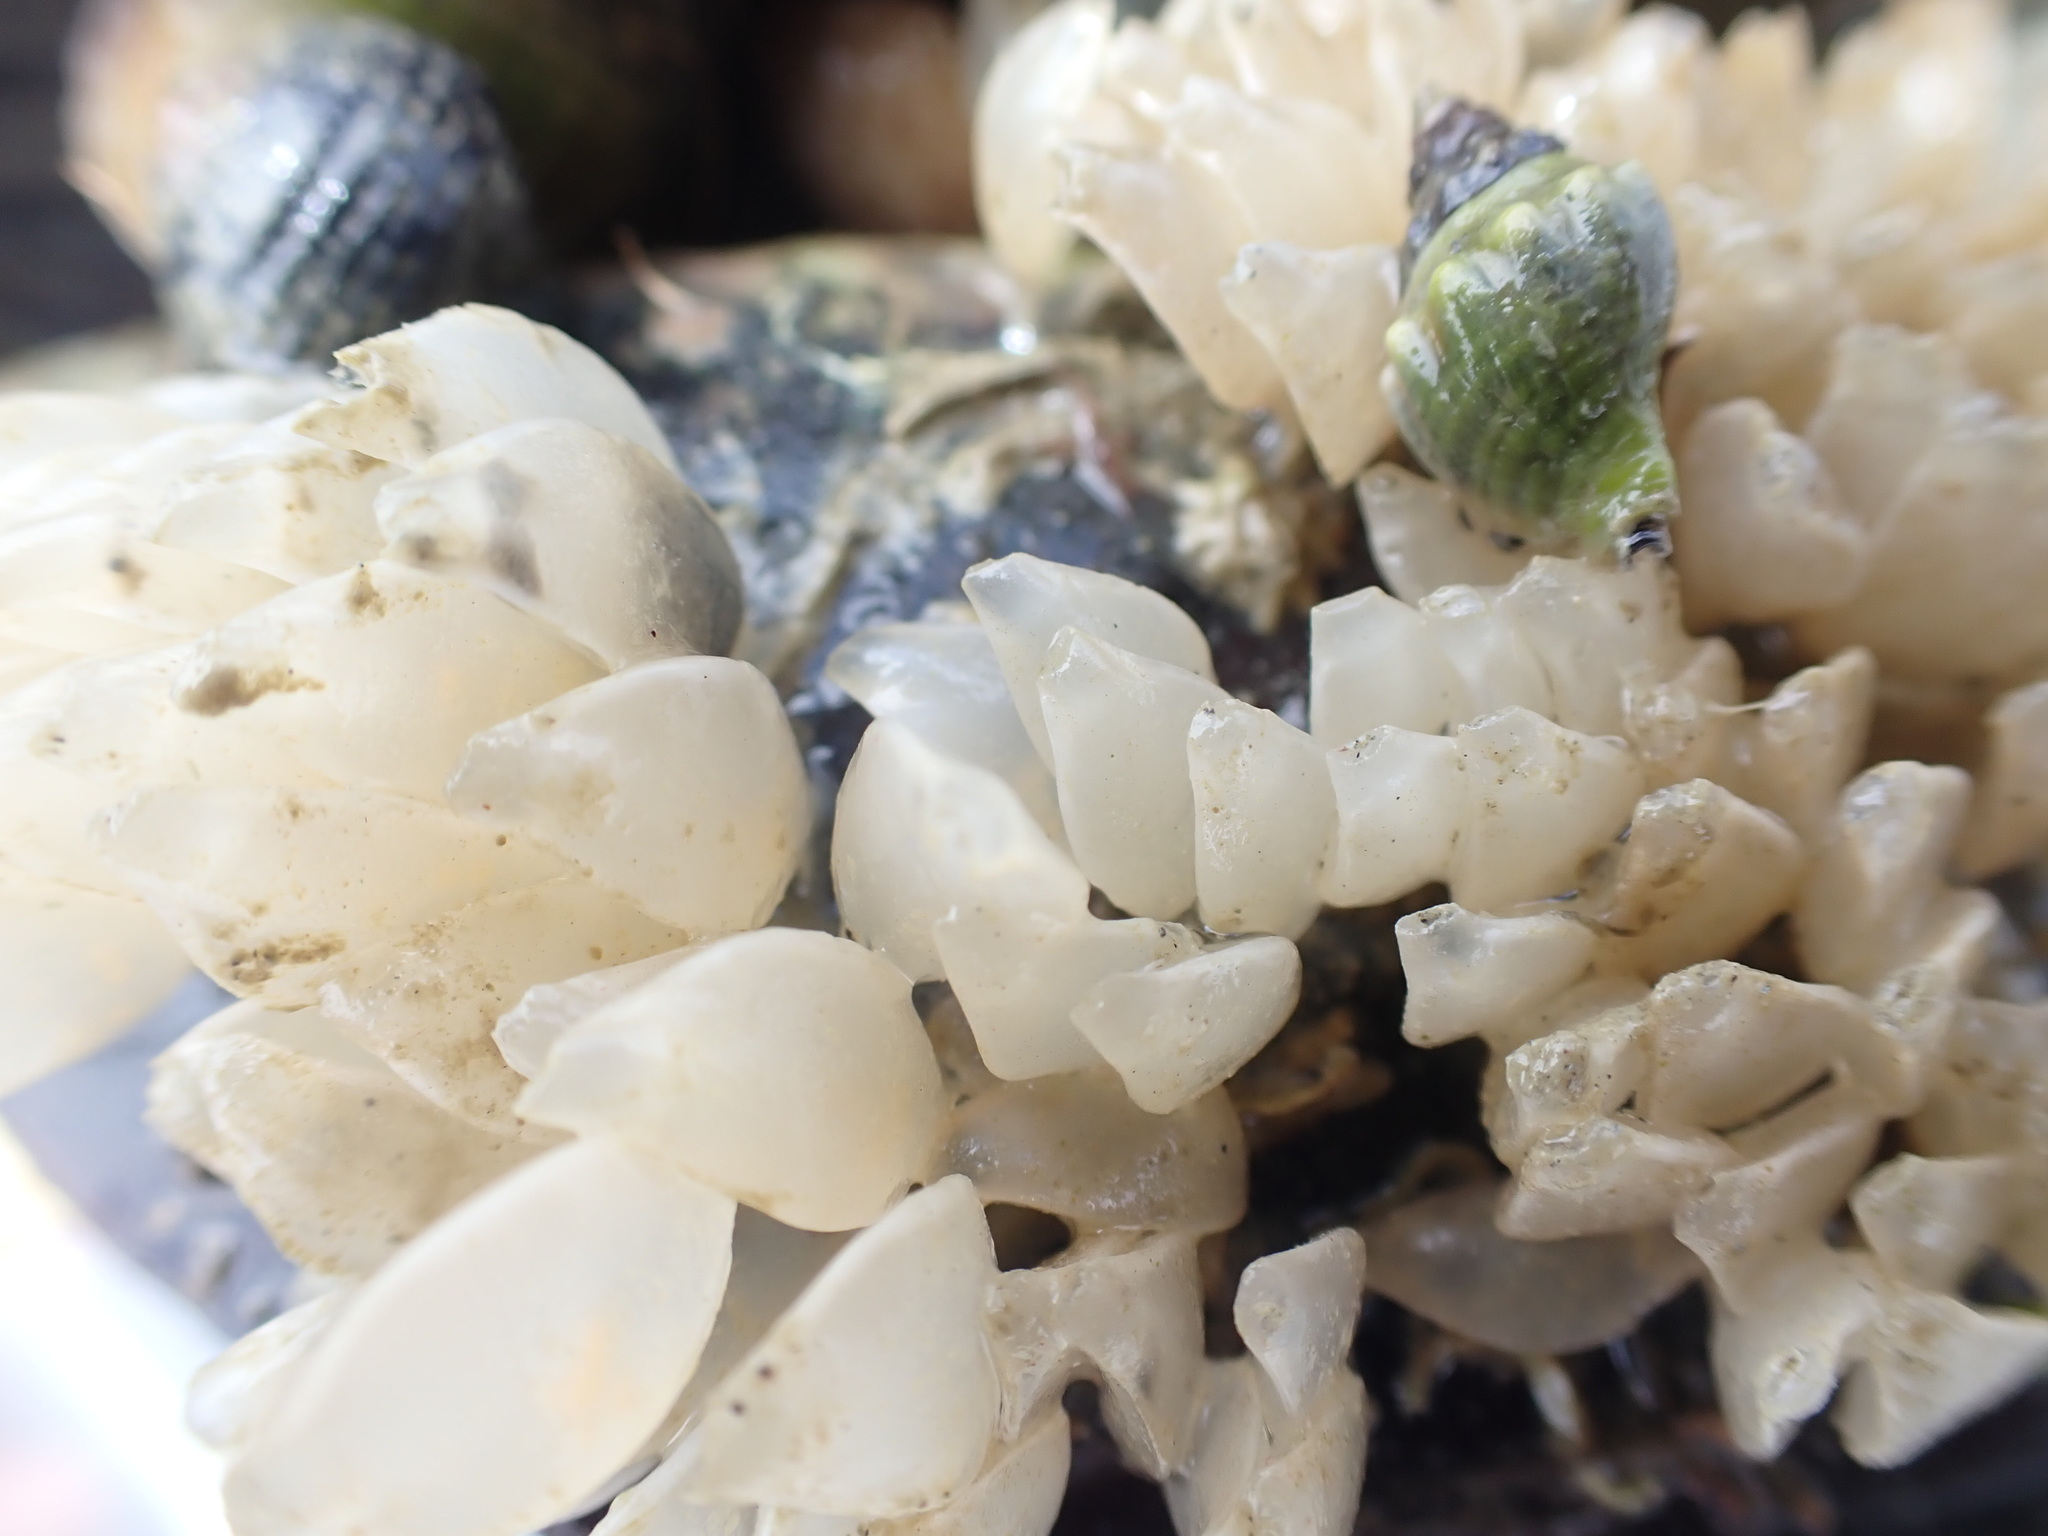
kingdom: Animalia
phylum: Mollusca
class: Gastropoda
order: Neogastropoda
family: Cominellidae
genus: Cominella
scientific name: Cominella adspersa
